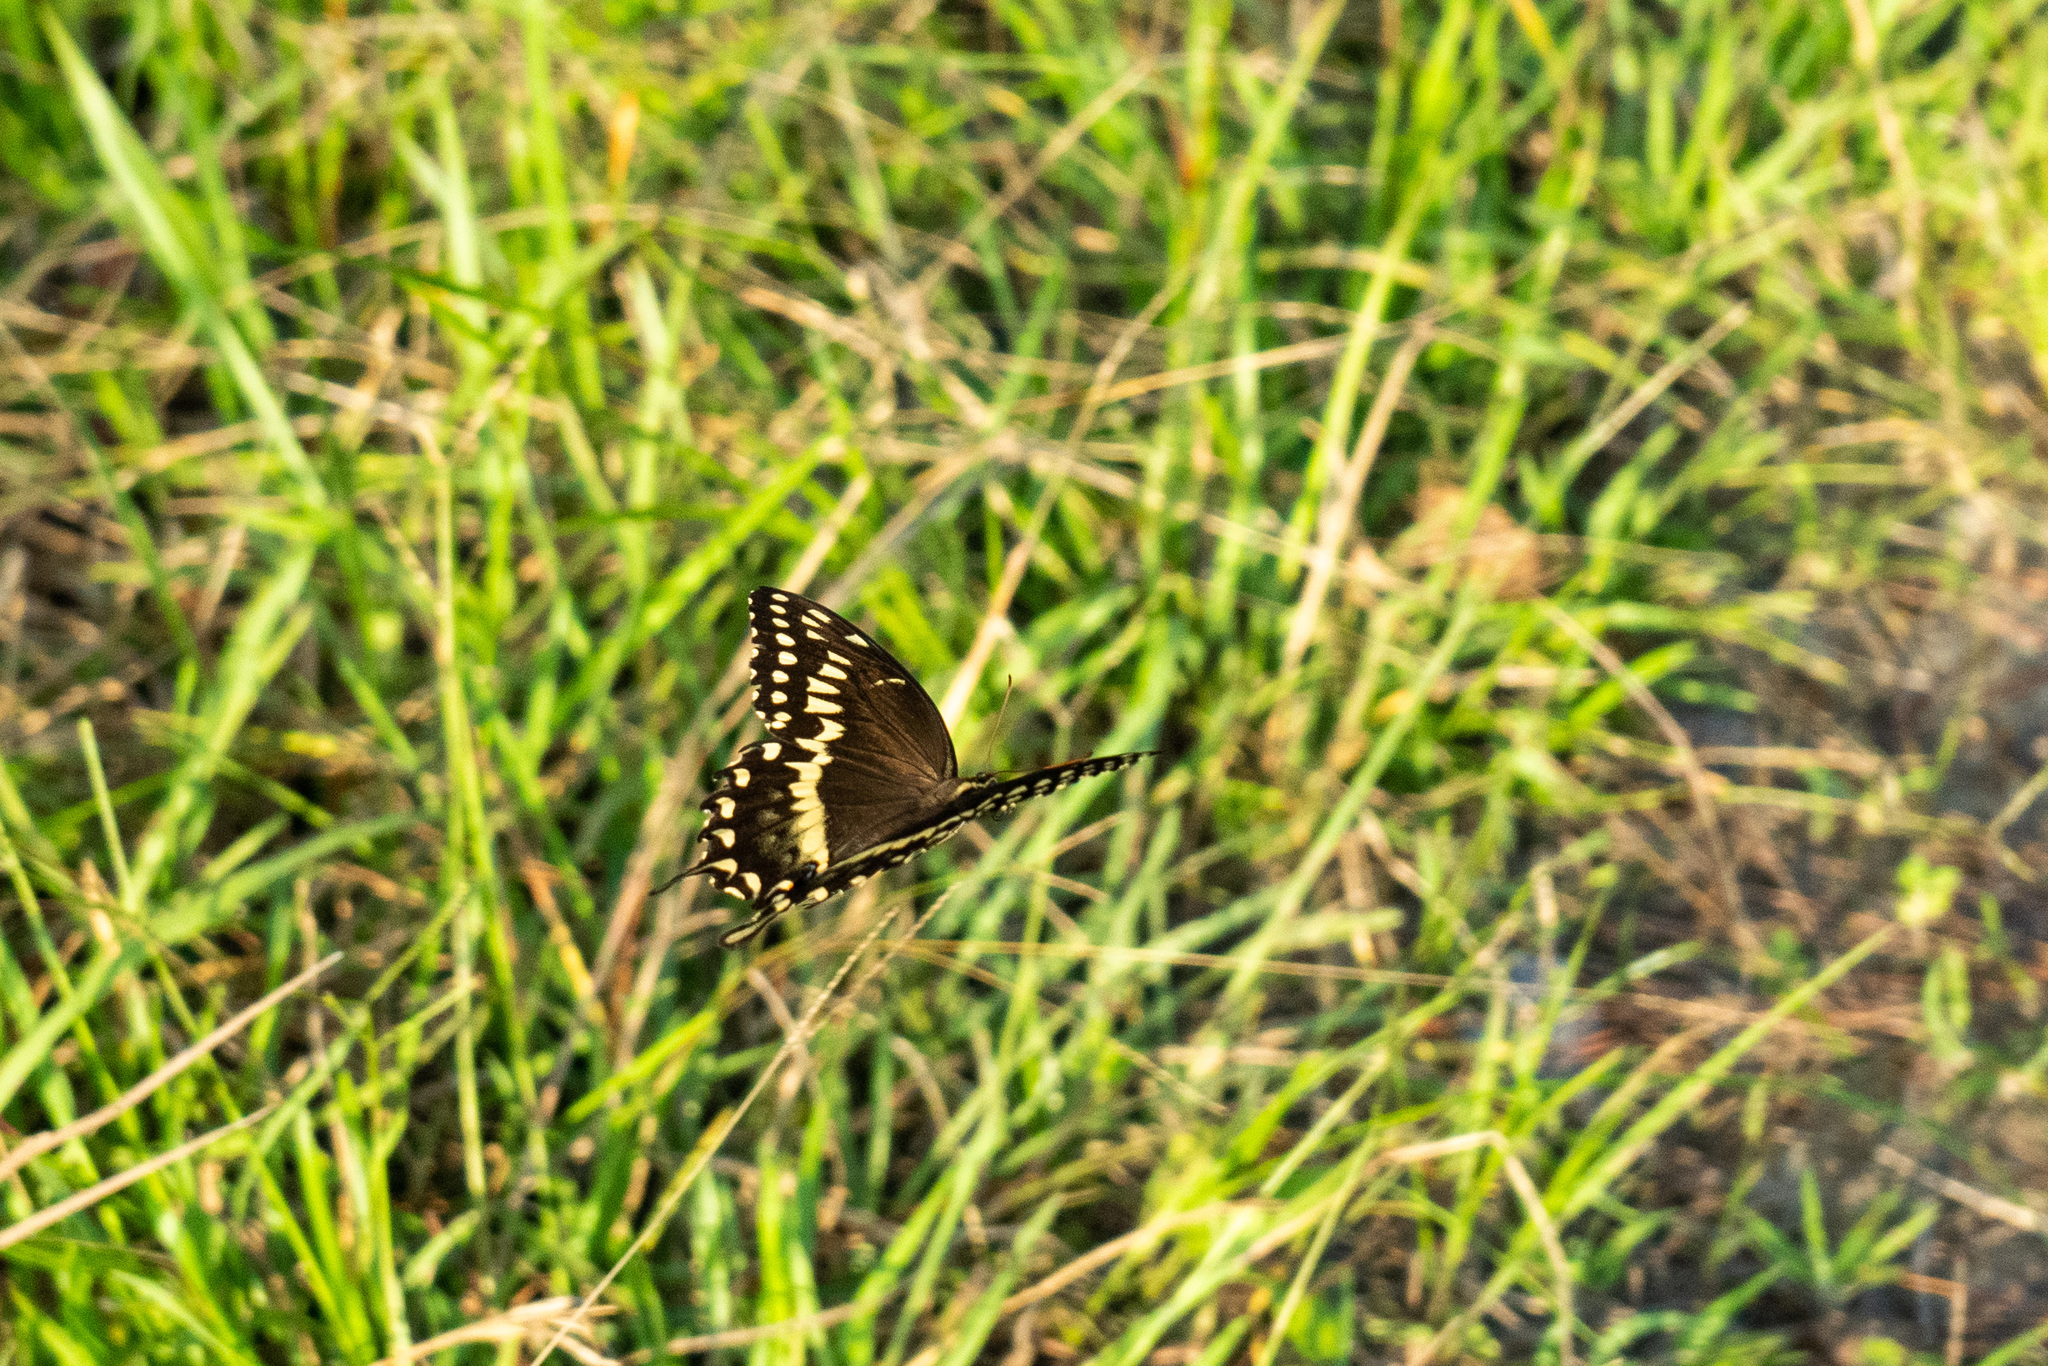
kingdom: Animalia
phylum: Arthropoda
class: Insecta
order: Lepidoptera
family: Papilionidae
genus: Papilio
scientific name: Papilio palamedes
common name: Palamedes swallowtail
